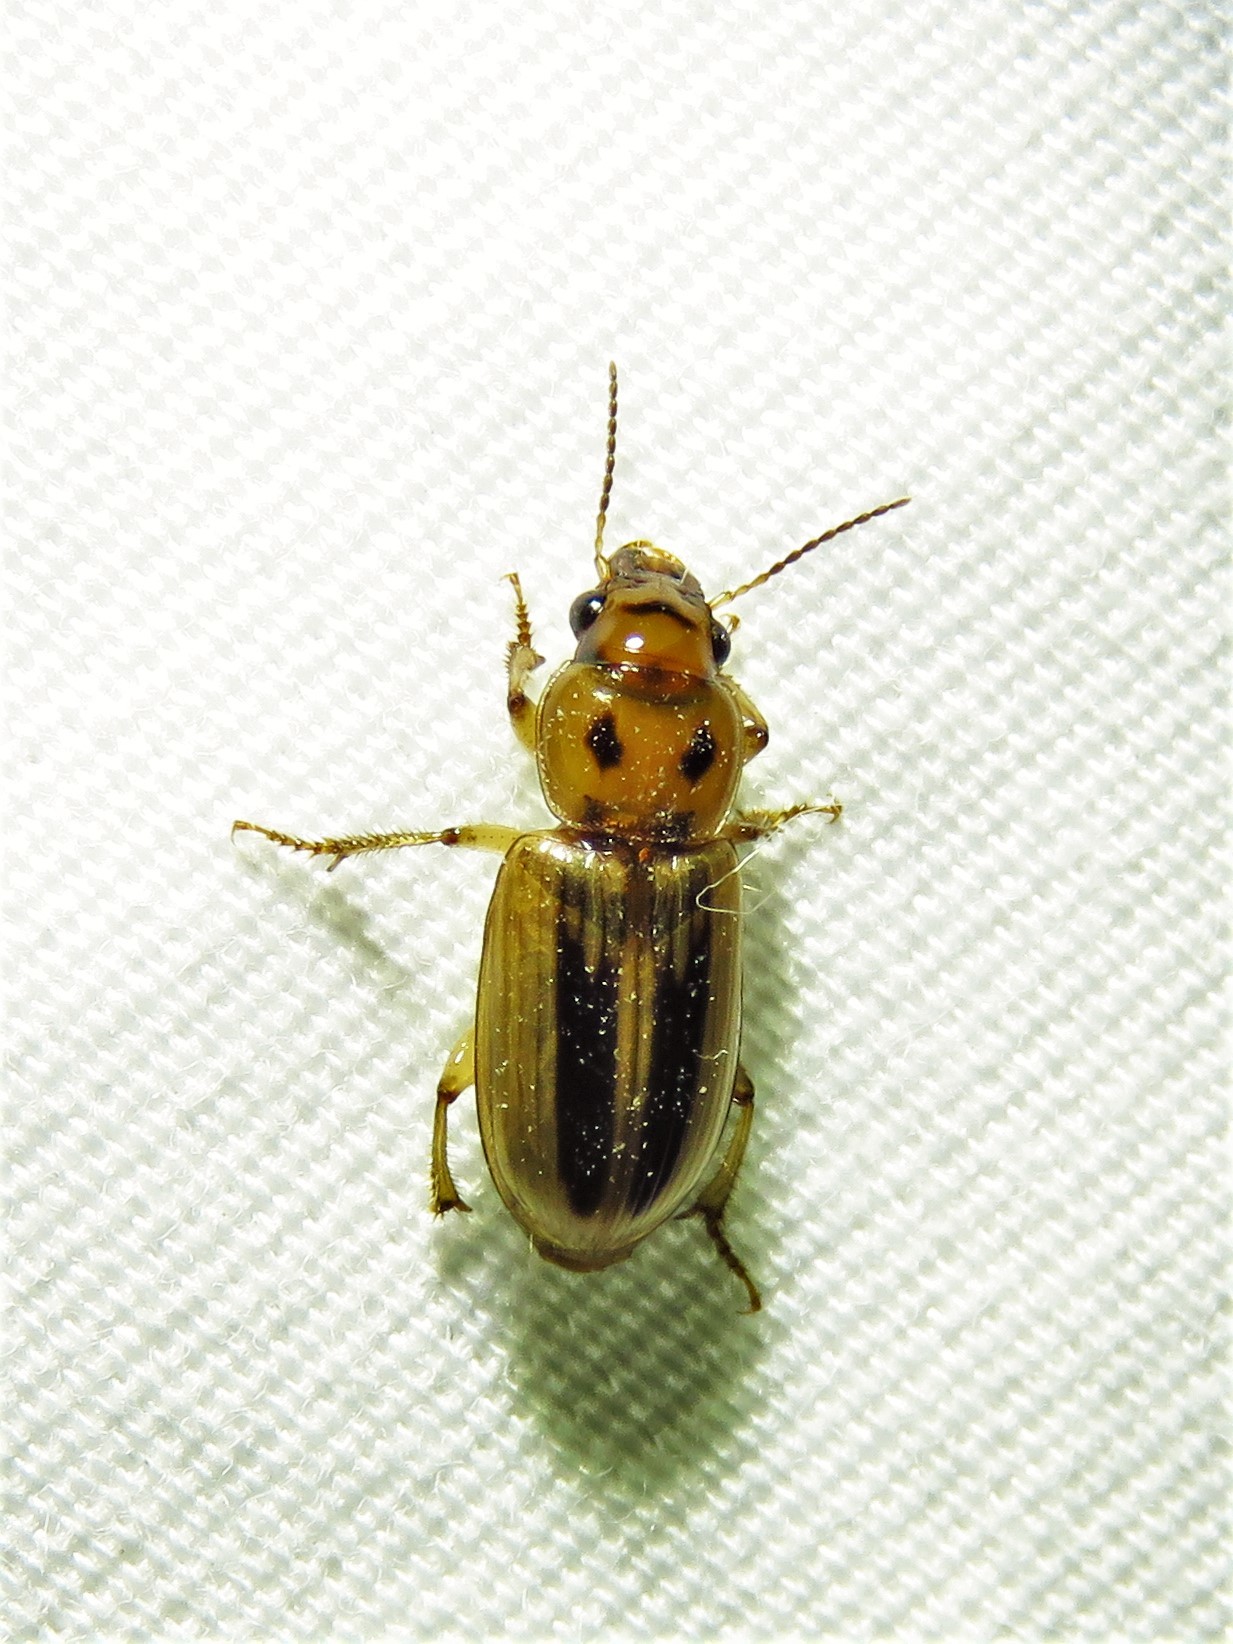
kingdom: Animalia
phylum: Arthropoda
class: Insecta
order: Coleoptera
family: Carabidae
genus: Stenolophus
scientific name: Stenolophus lineola
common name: Lined stenolophus
